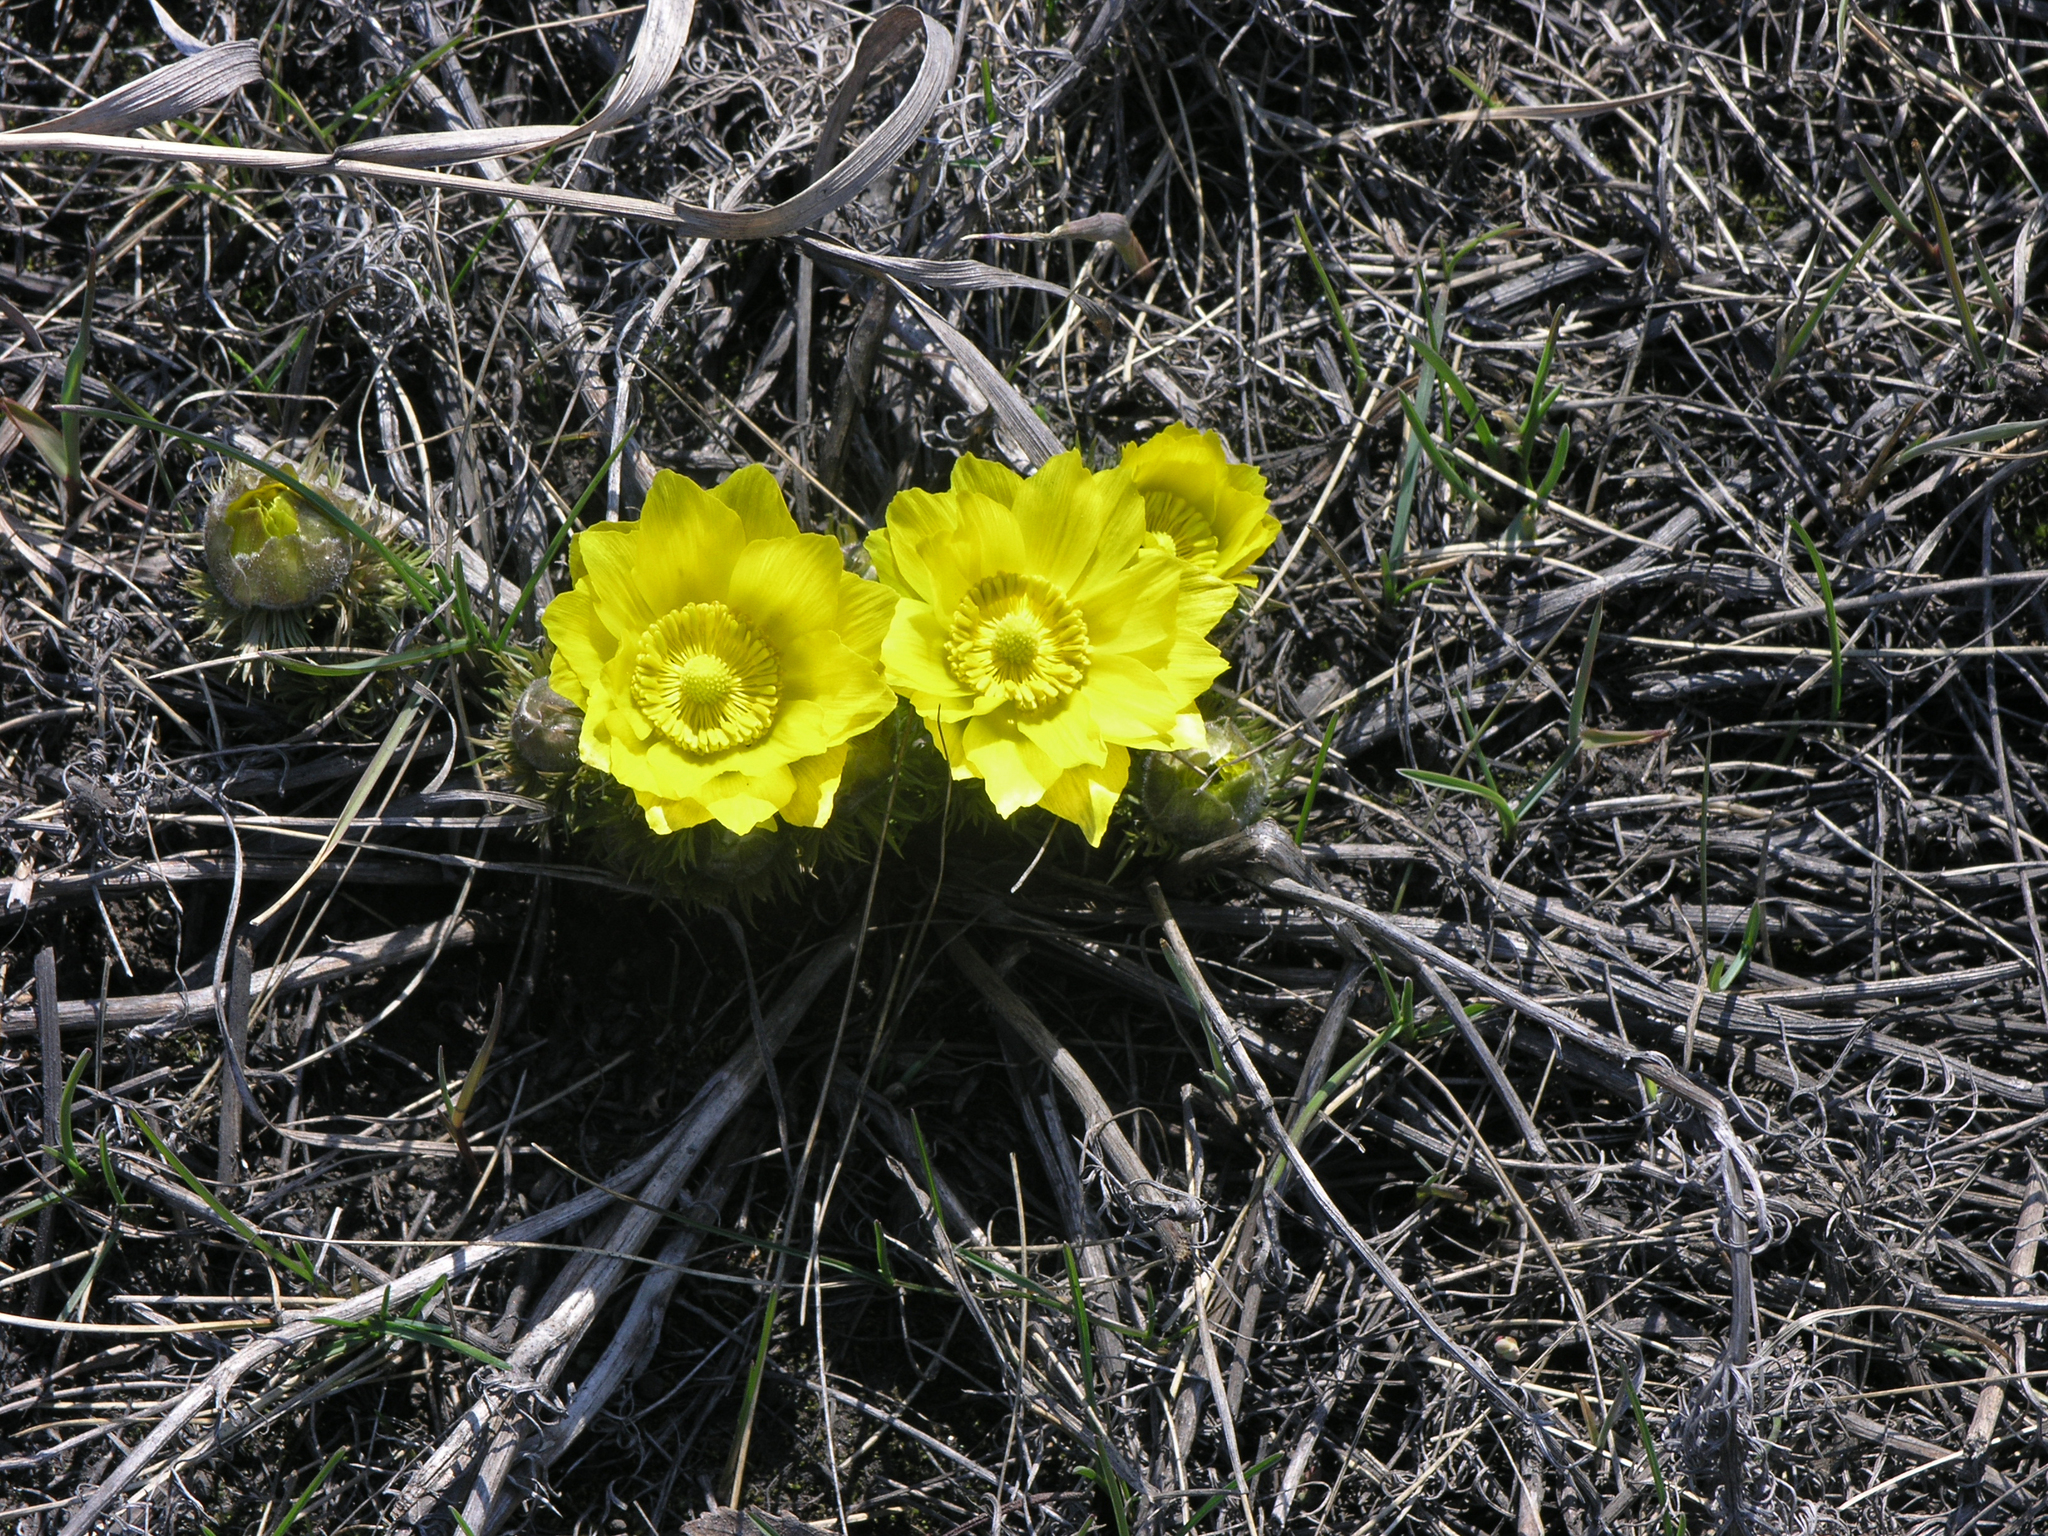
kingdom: Plantae
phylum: Tracheophyta
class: Magnoliopsida
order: Ranunculales
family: Ranunculaceae
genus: Adonis
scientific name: Adonis vernalis
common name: Yellow pheasants-eye
